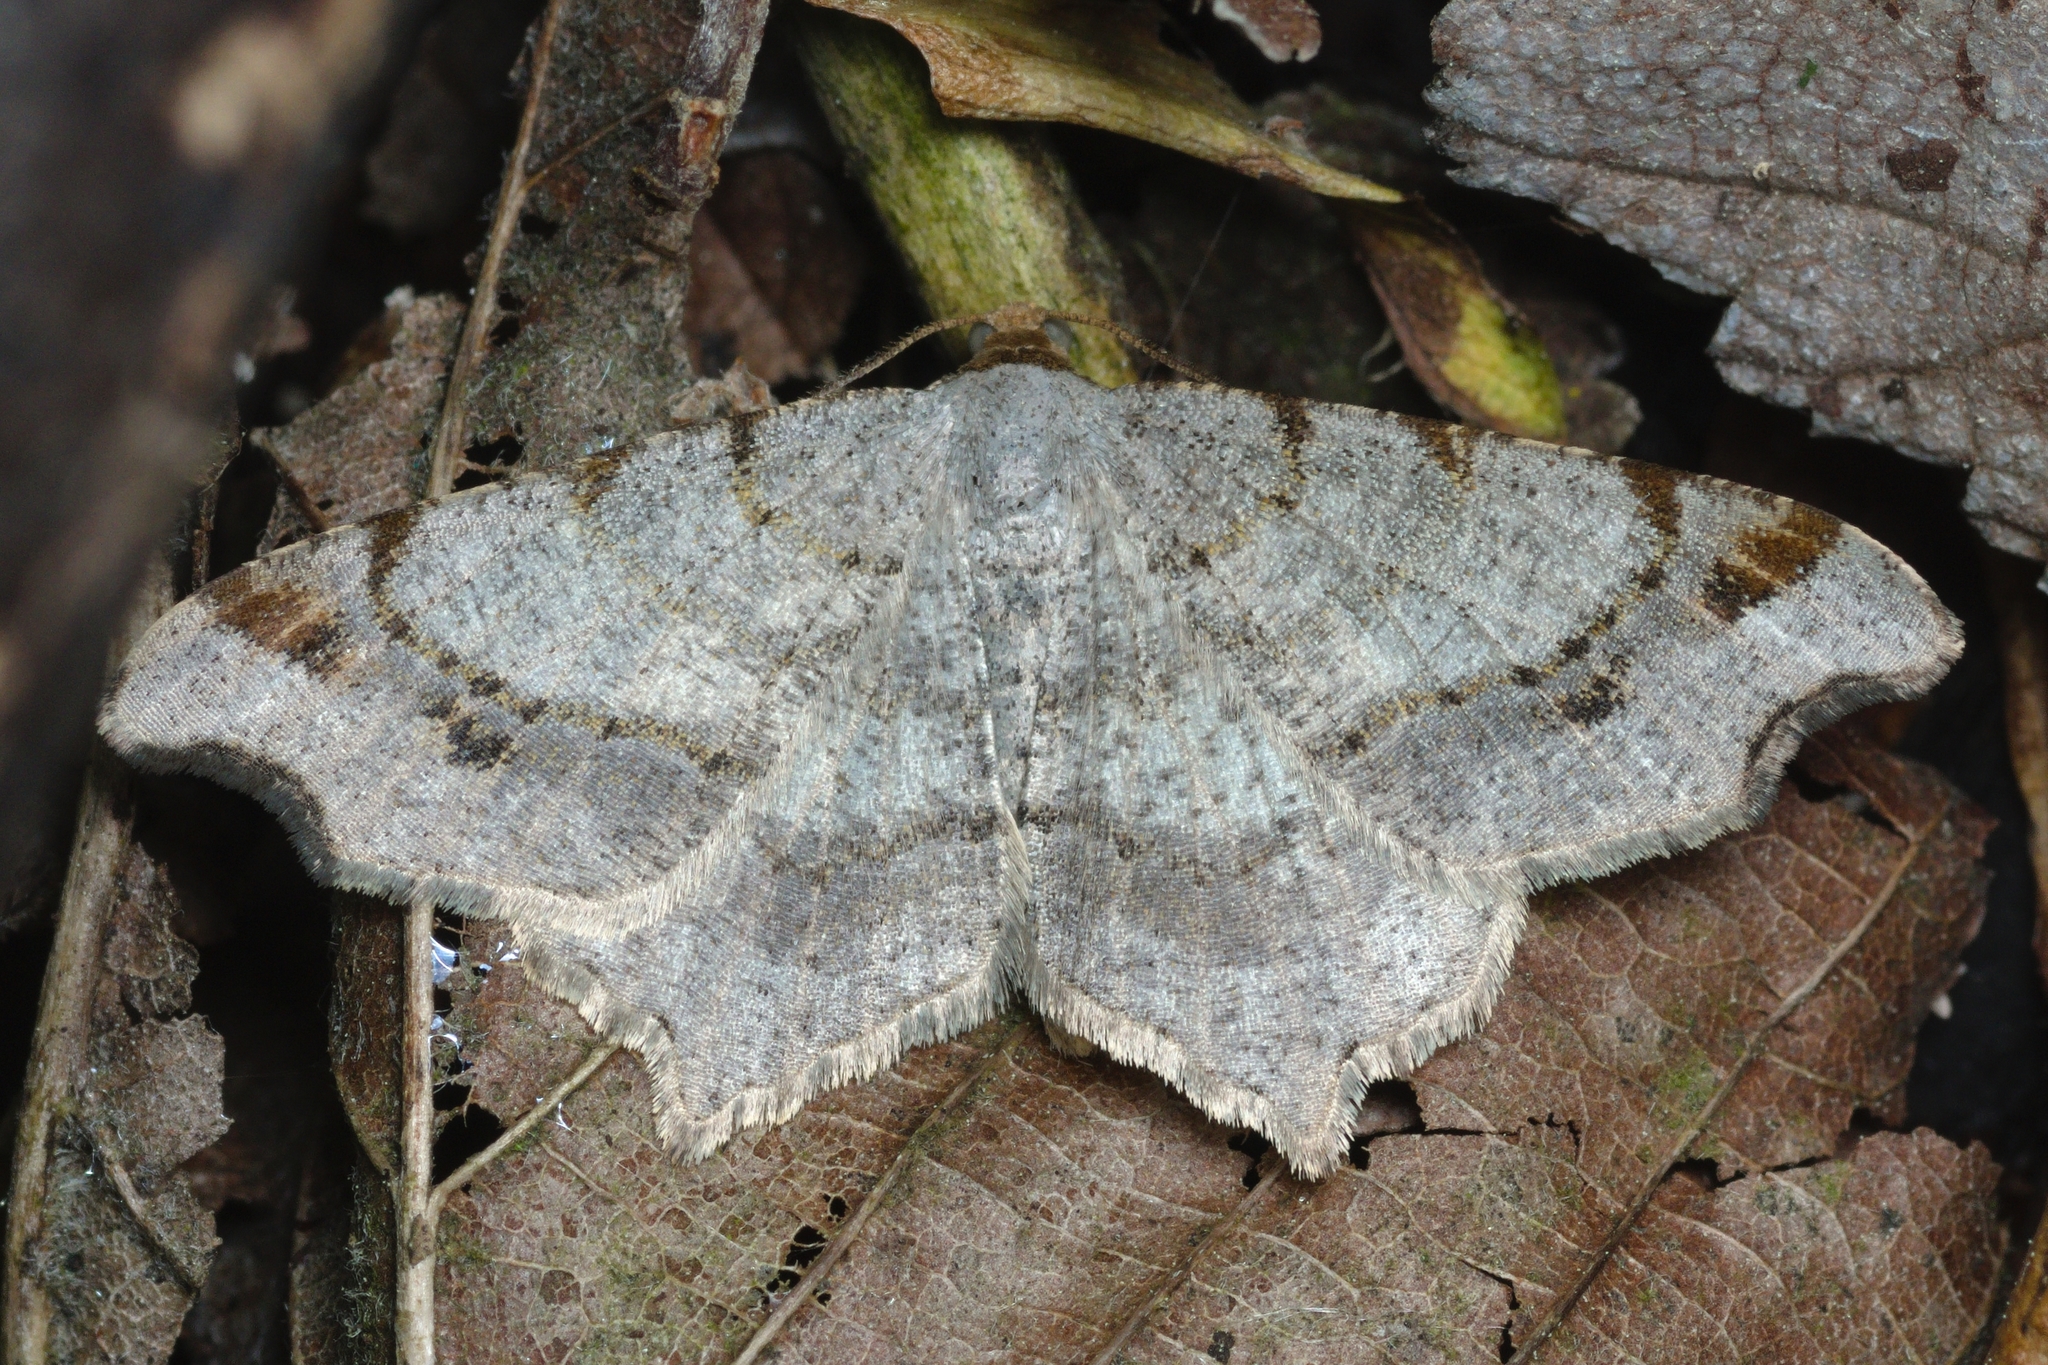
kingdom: Animalia
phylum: Arthropoda
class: Insecta
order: Lepidoptera
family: Geometridae
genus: Macaria
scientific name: Macaria alternata
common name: Sharp-angled peacock
